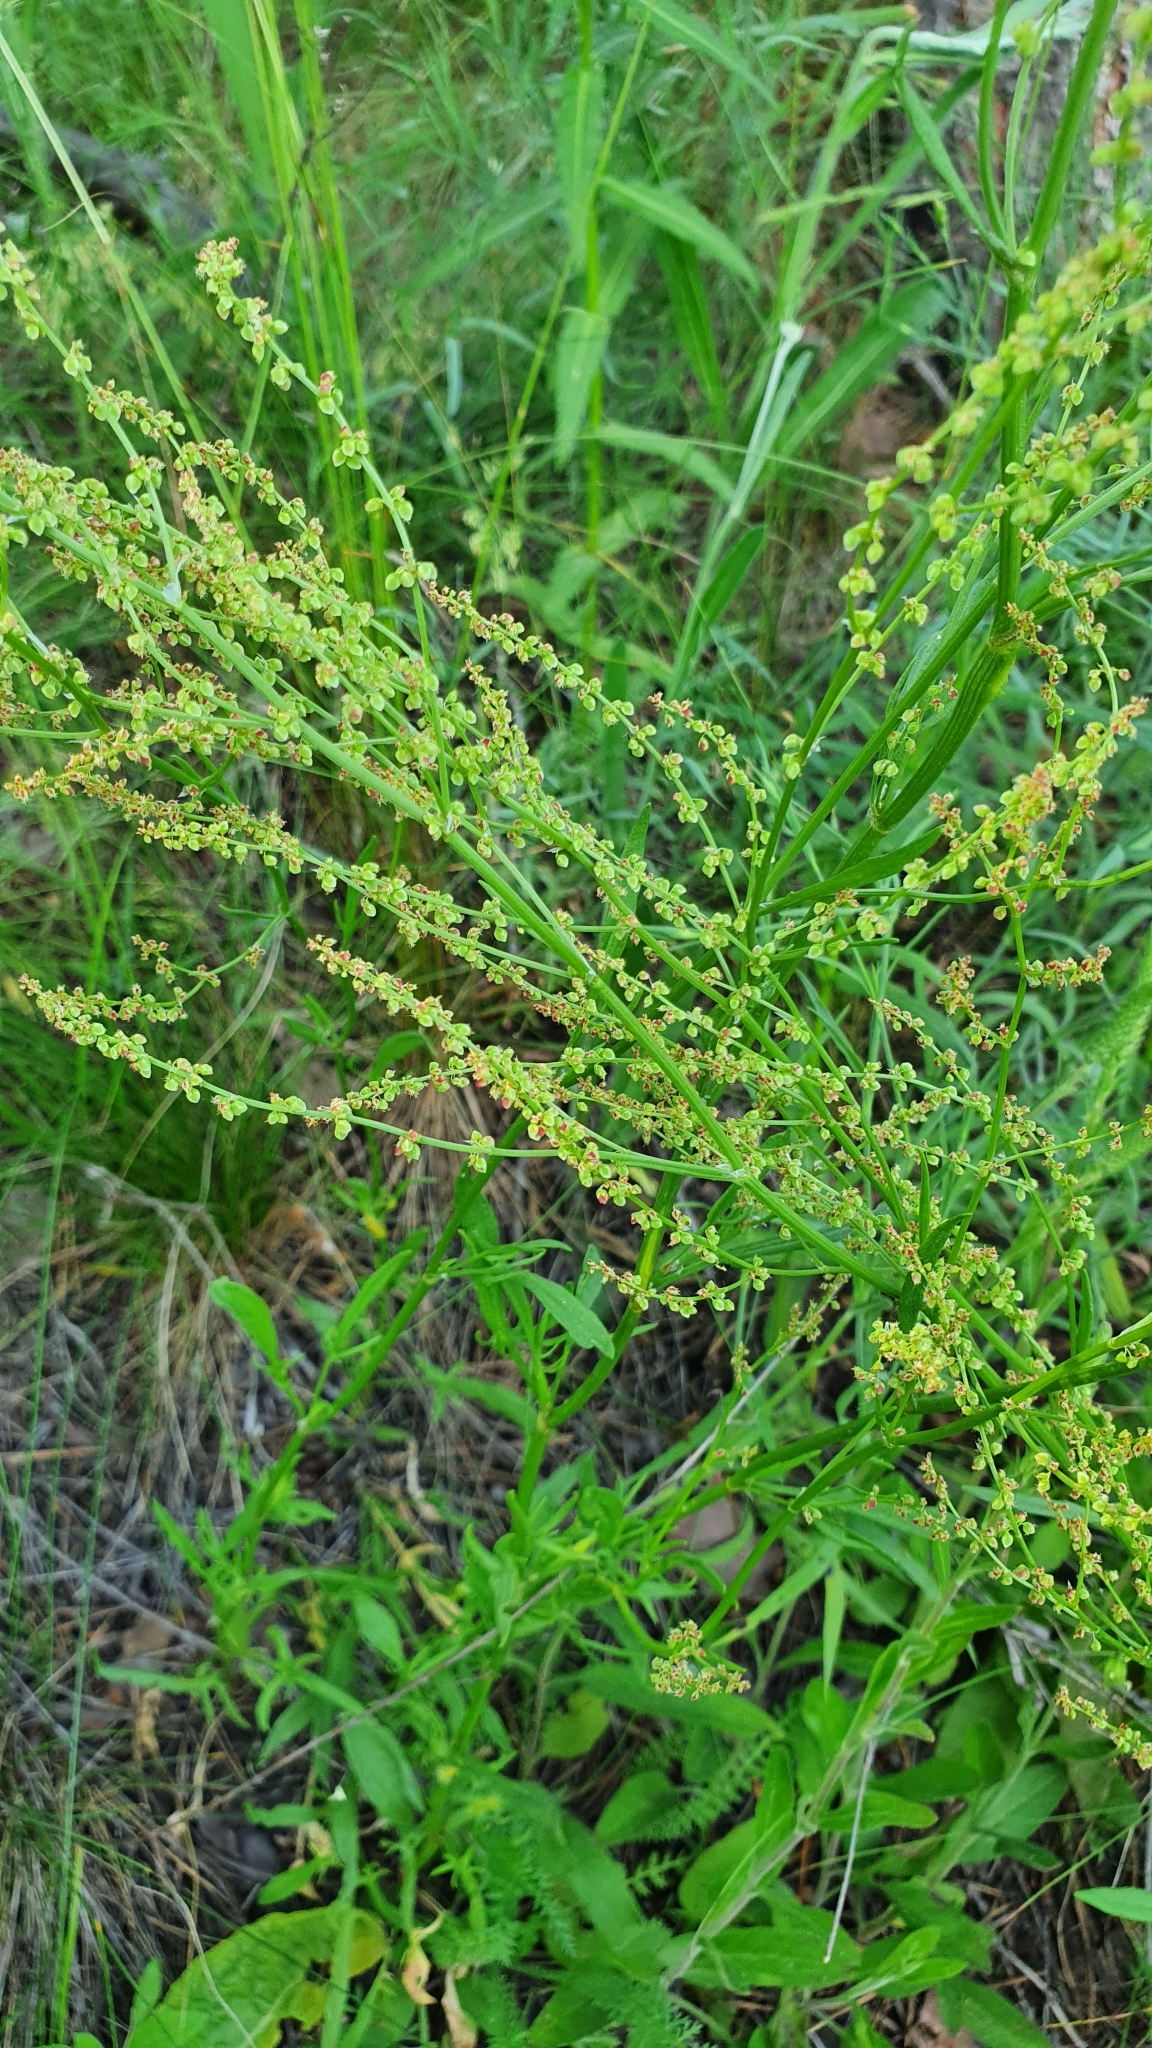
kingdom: Plantae
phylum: Tracheophyta
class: Magnoliopsida
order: Caryophyllales
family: Polygonaceae
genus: Rumex
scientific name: Rumex acetosella
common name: Common sheep sorrel
